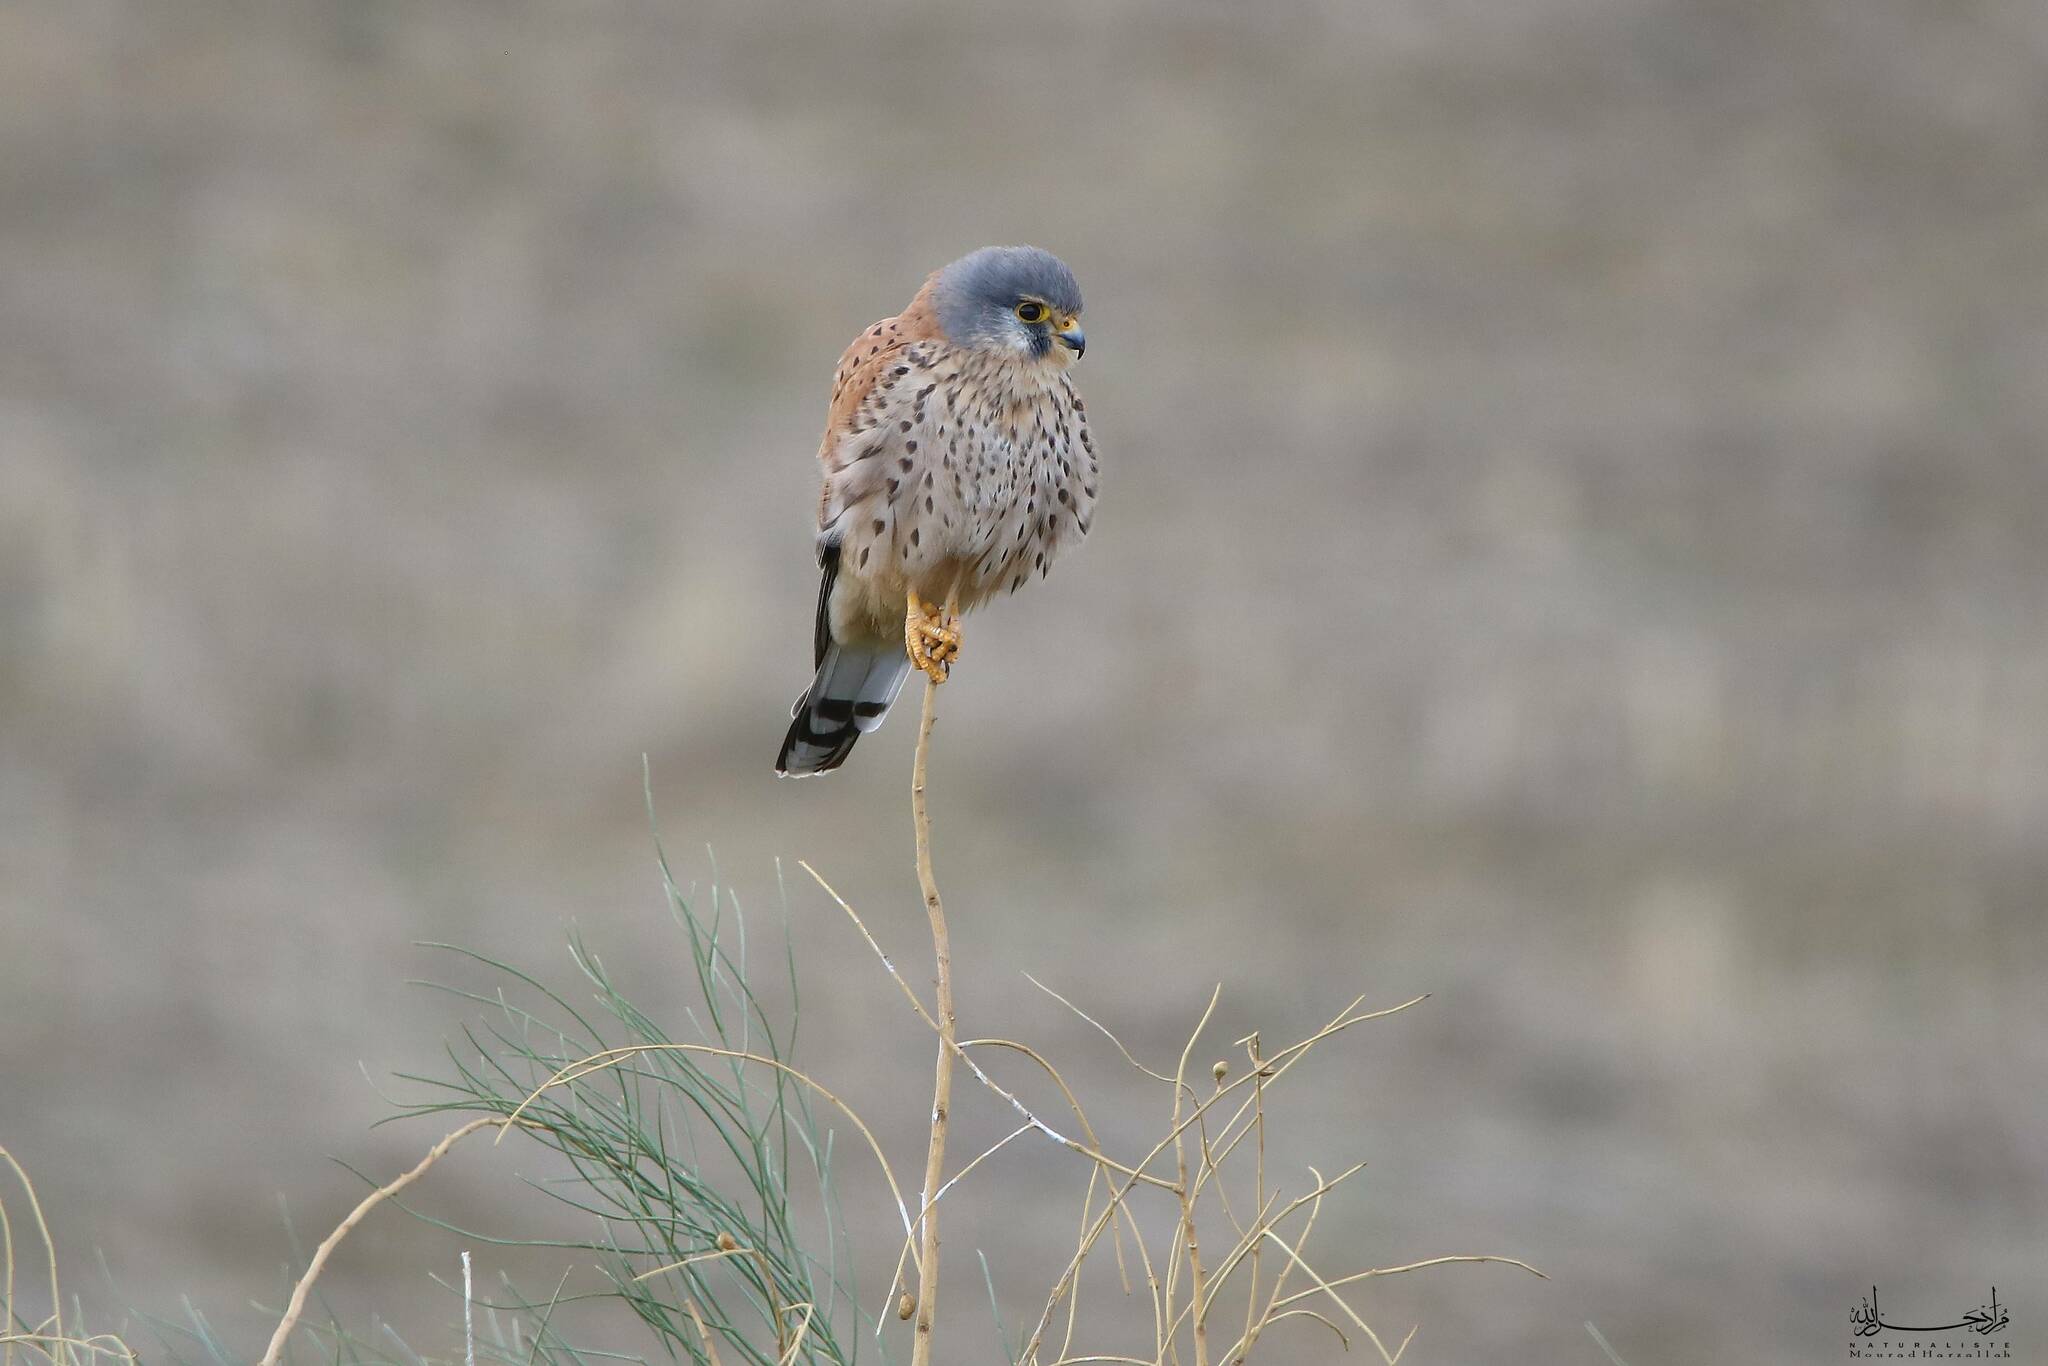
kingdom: Animalia
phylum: Chordata
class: Aves
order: Falconiformes
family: Falconidae
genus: Falco
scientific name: Falco tinnunculus
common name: Common kestrel
